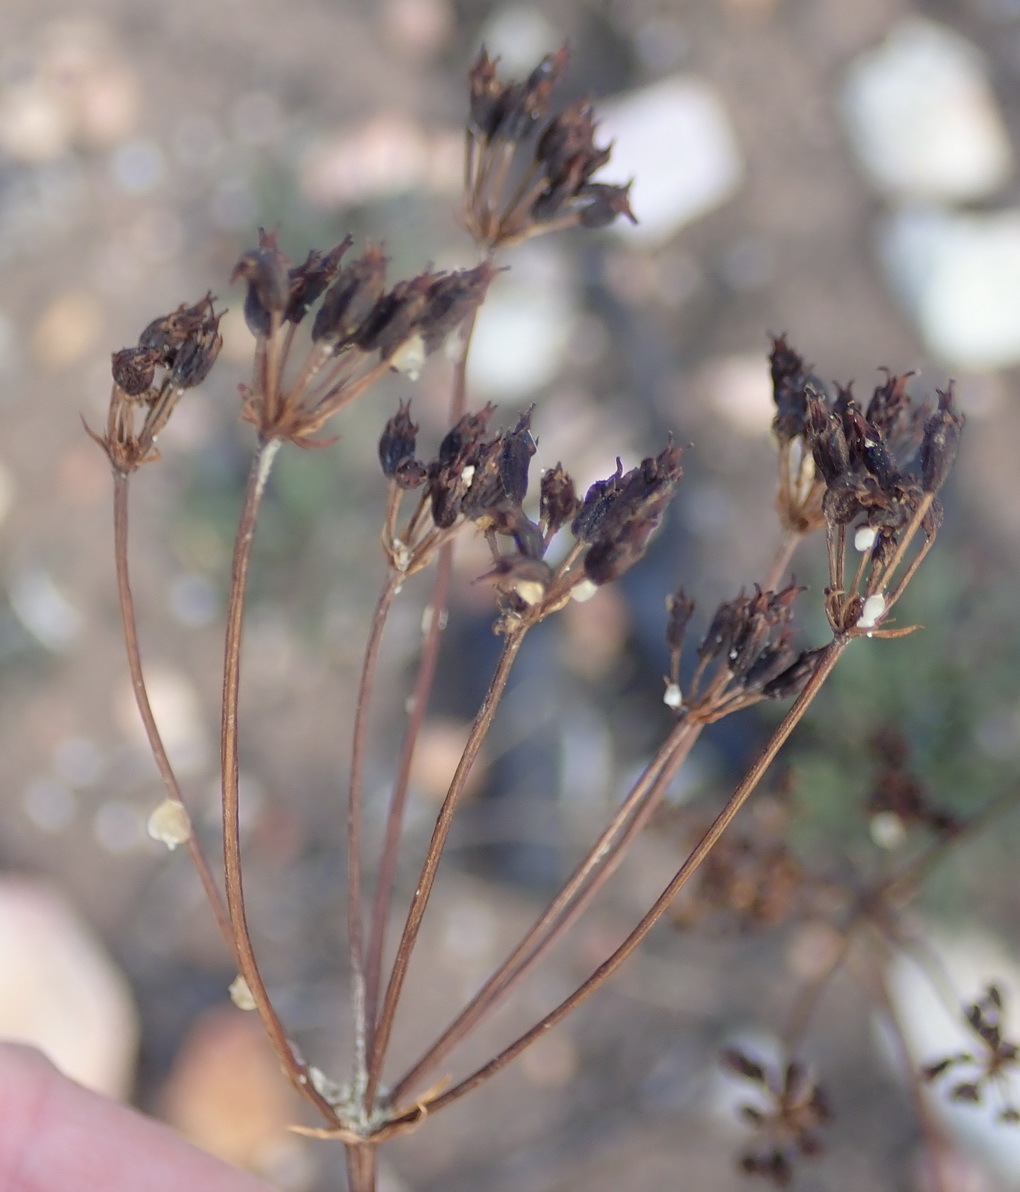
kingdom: Plantae
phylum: Tracheophyta
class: Magnoliopsida
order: Apiales
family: Apiaceae
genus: Lichtensteinia
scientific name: Lichtensteinia interrupta
